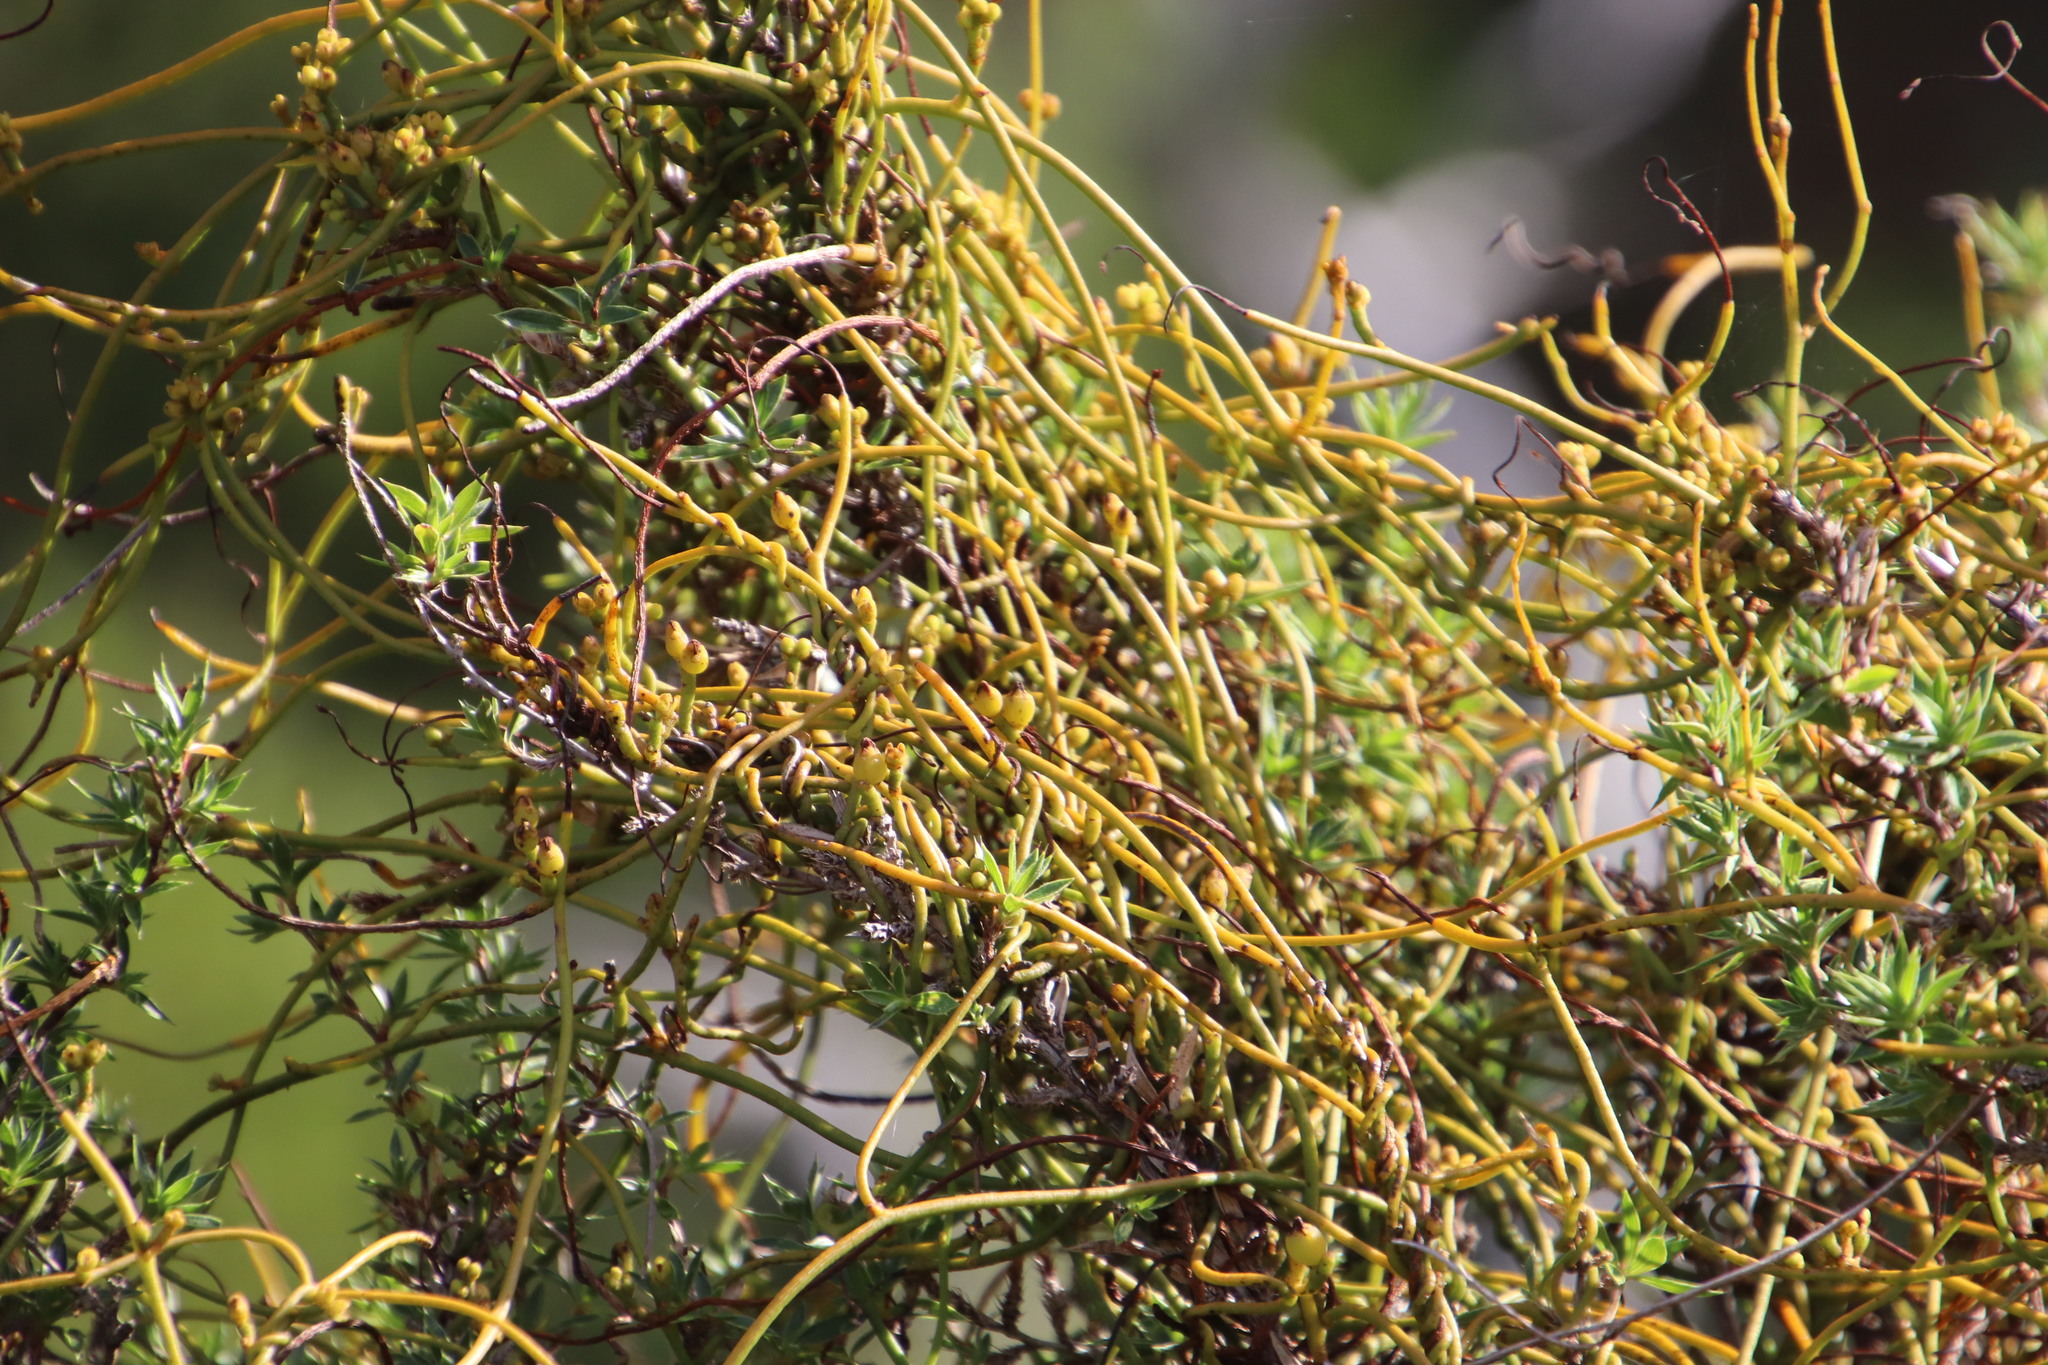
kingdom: Plantae
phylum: Tracheophyta
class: Magnoliopsida
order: Laurales
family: Lauraceae
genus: Cassytha
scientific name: Cassytha ciliolata
